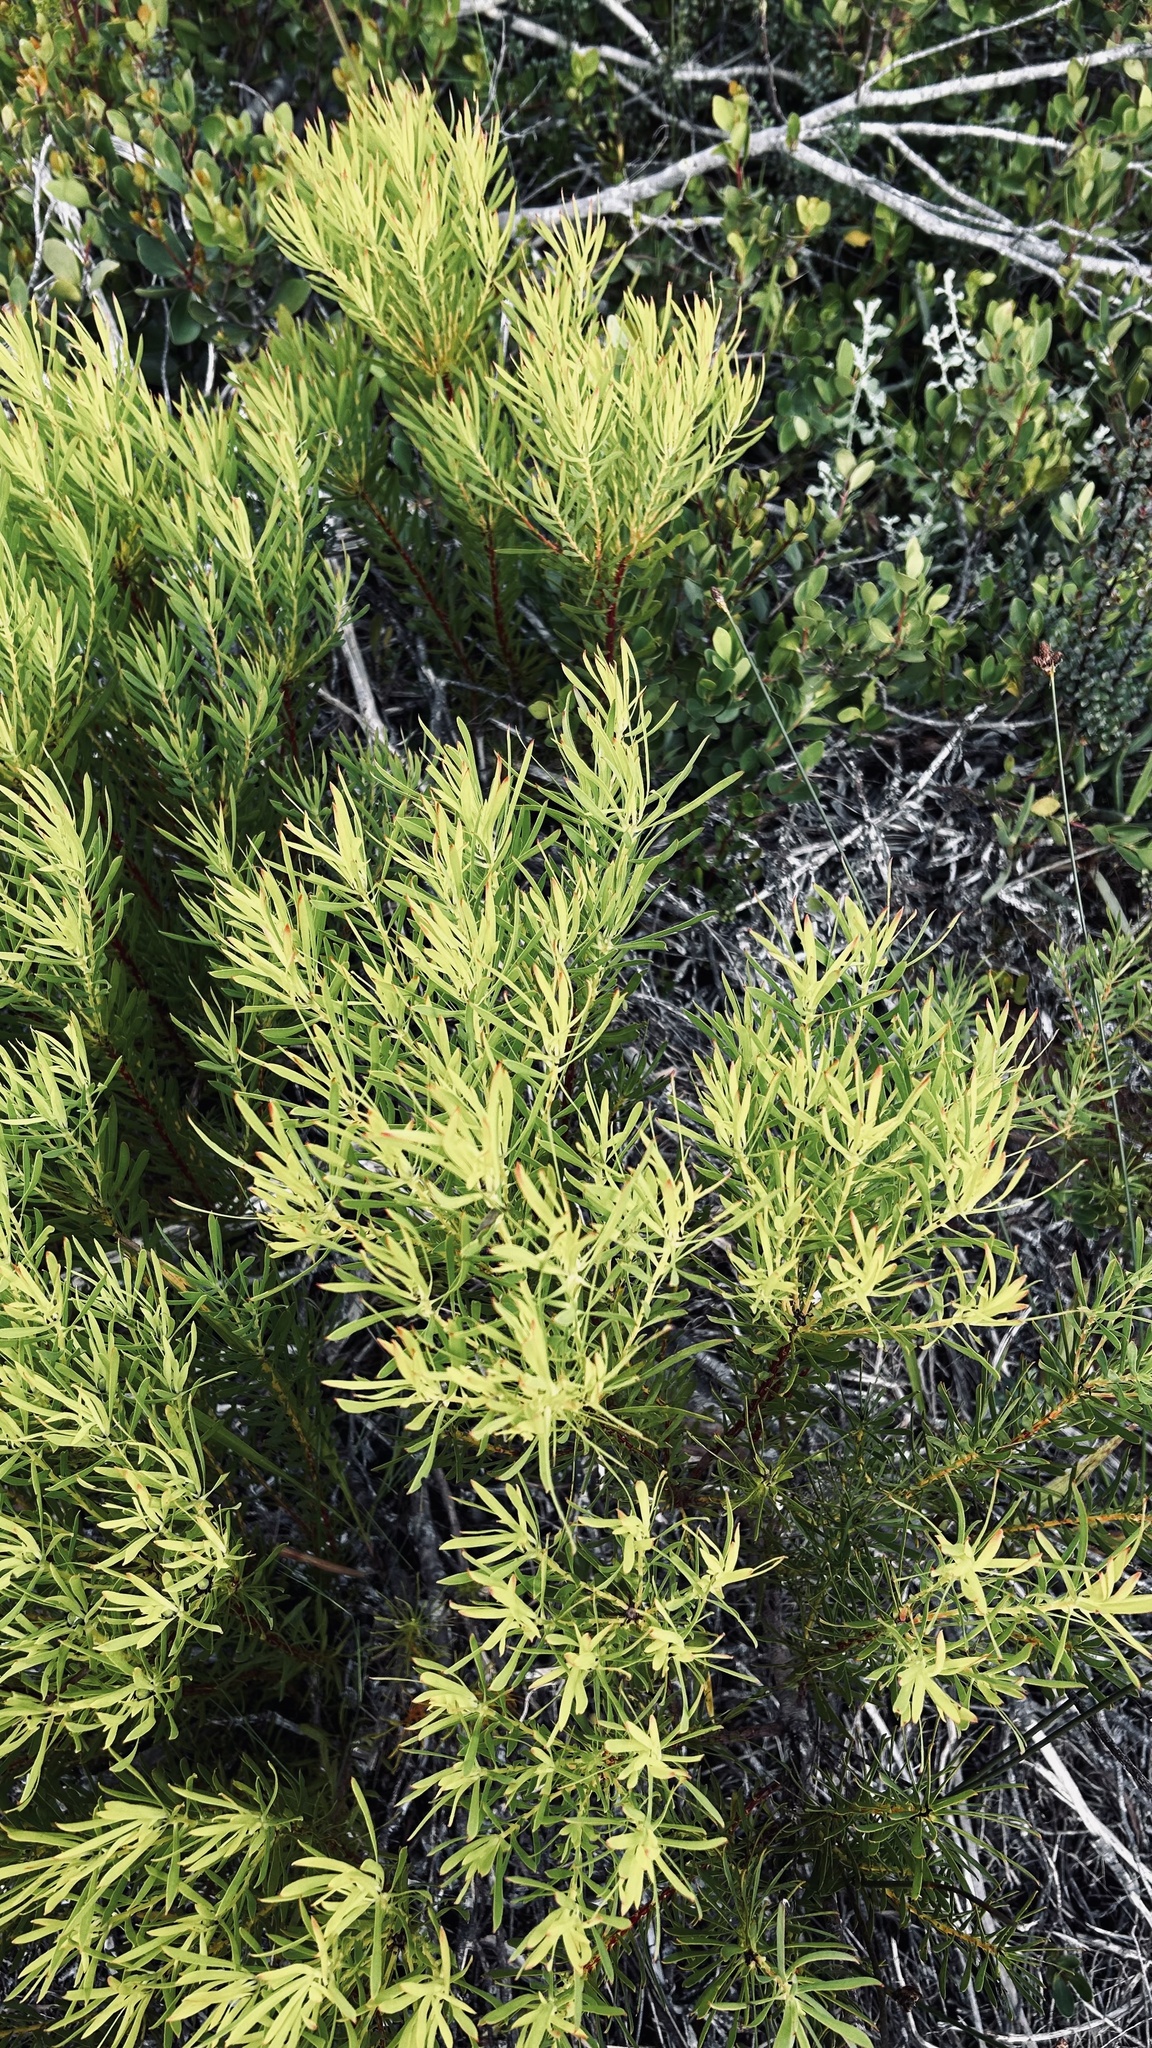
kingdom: Plantae
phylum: Tracheophyta
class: Magnoliopsida
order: Proteales
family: Proteaceae
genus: Leucadendron
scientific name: Leucadendron salignum
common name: Common sunshine conebush
